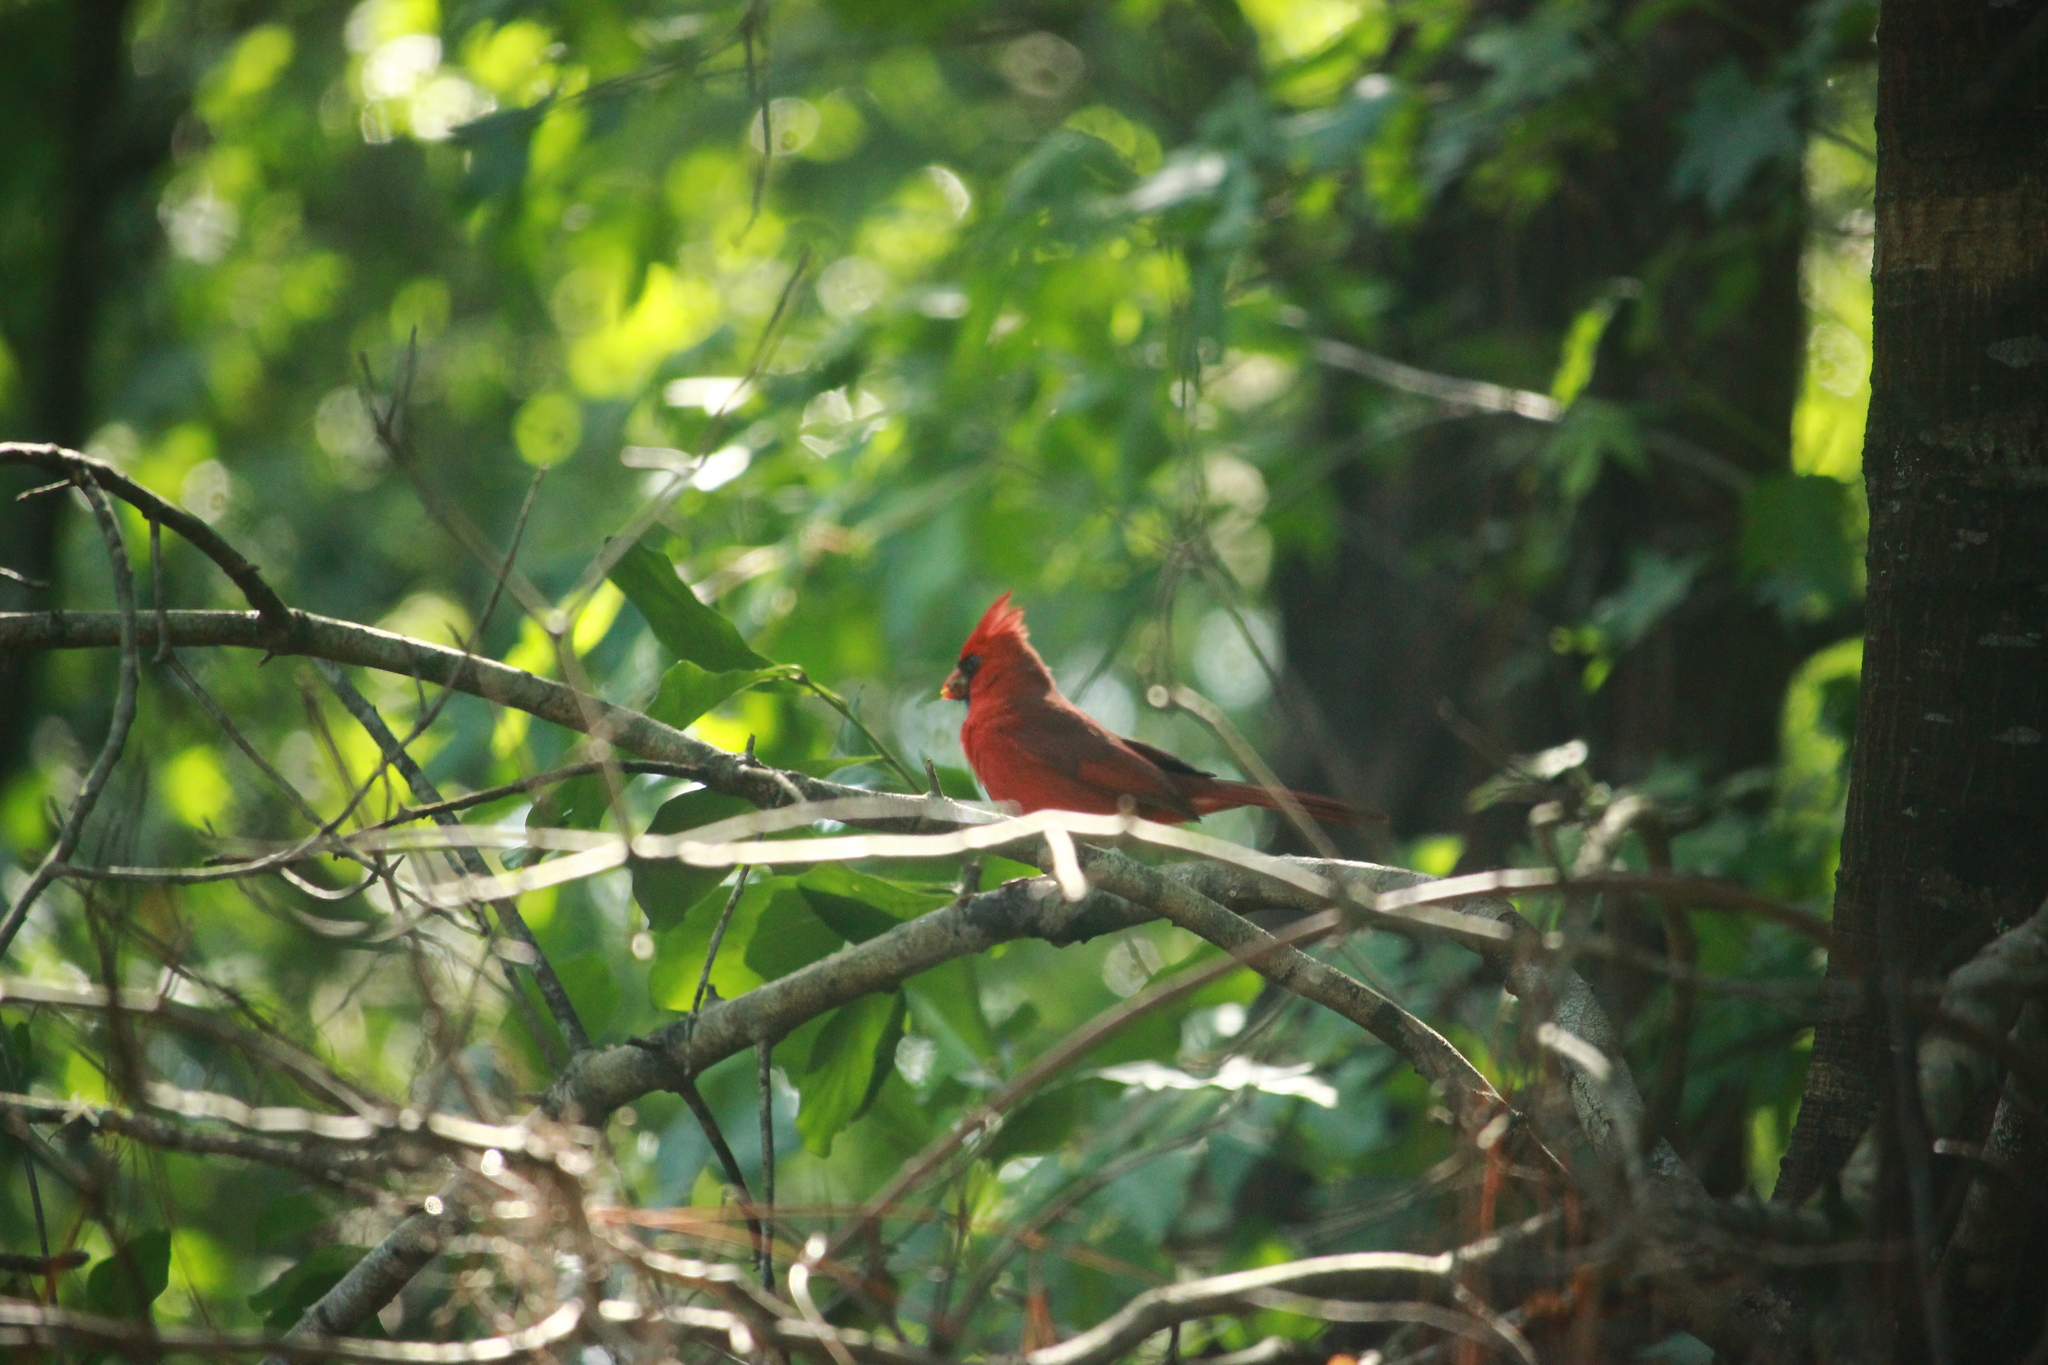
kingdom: Animalia
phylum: Chordata
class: Aves
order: Passeriformes
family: Cardinalidae
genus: Cardinalis
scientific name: Cardinalis cardinalis
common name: Northern cardinal
